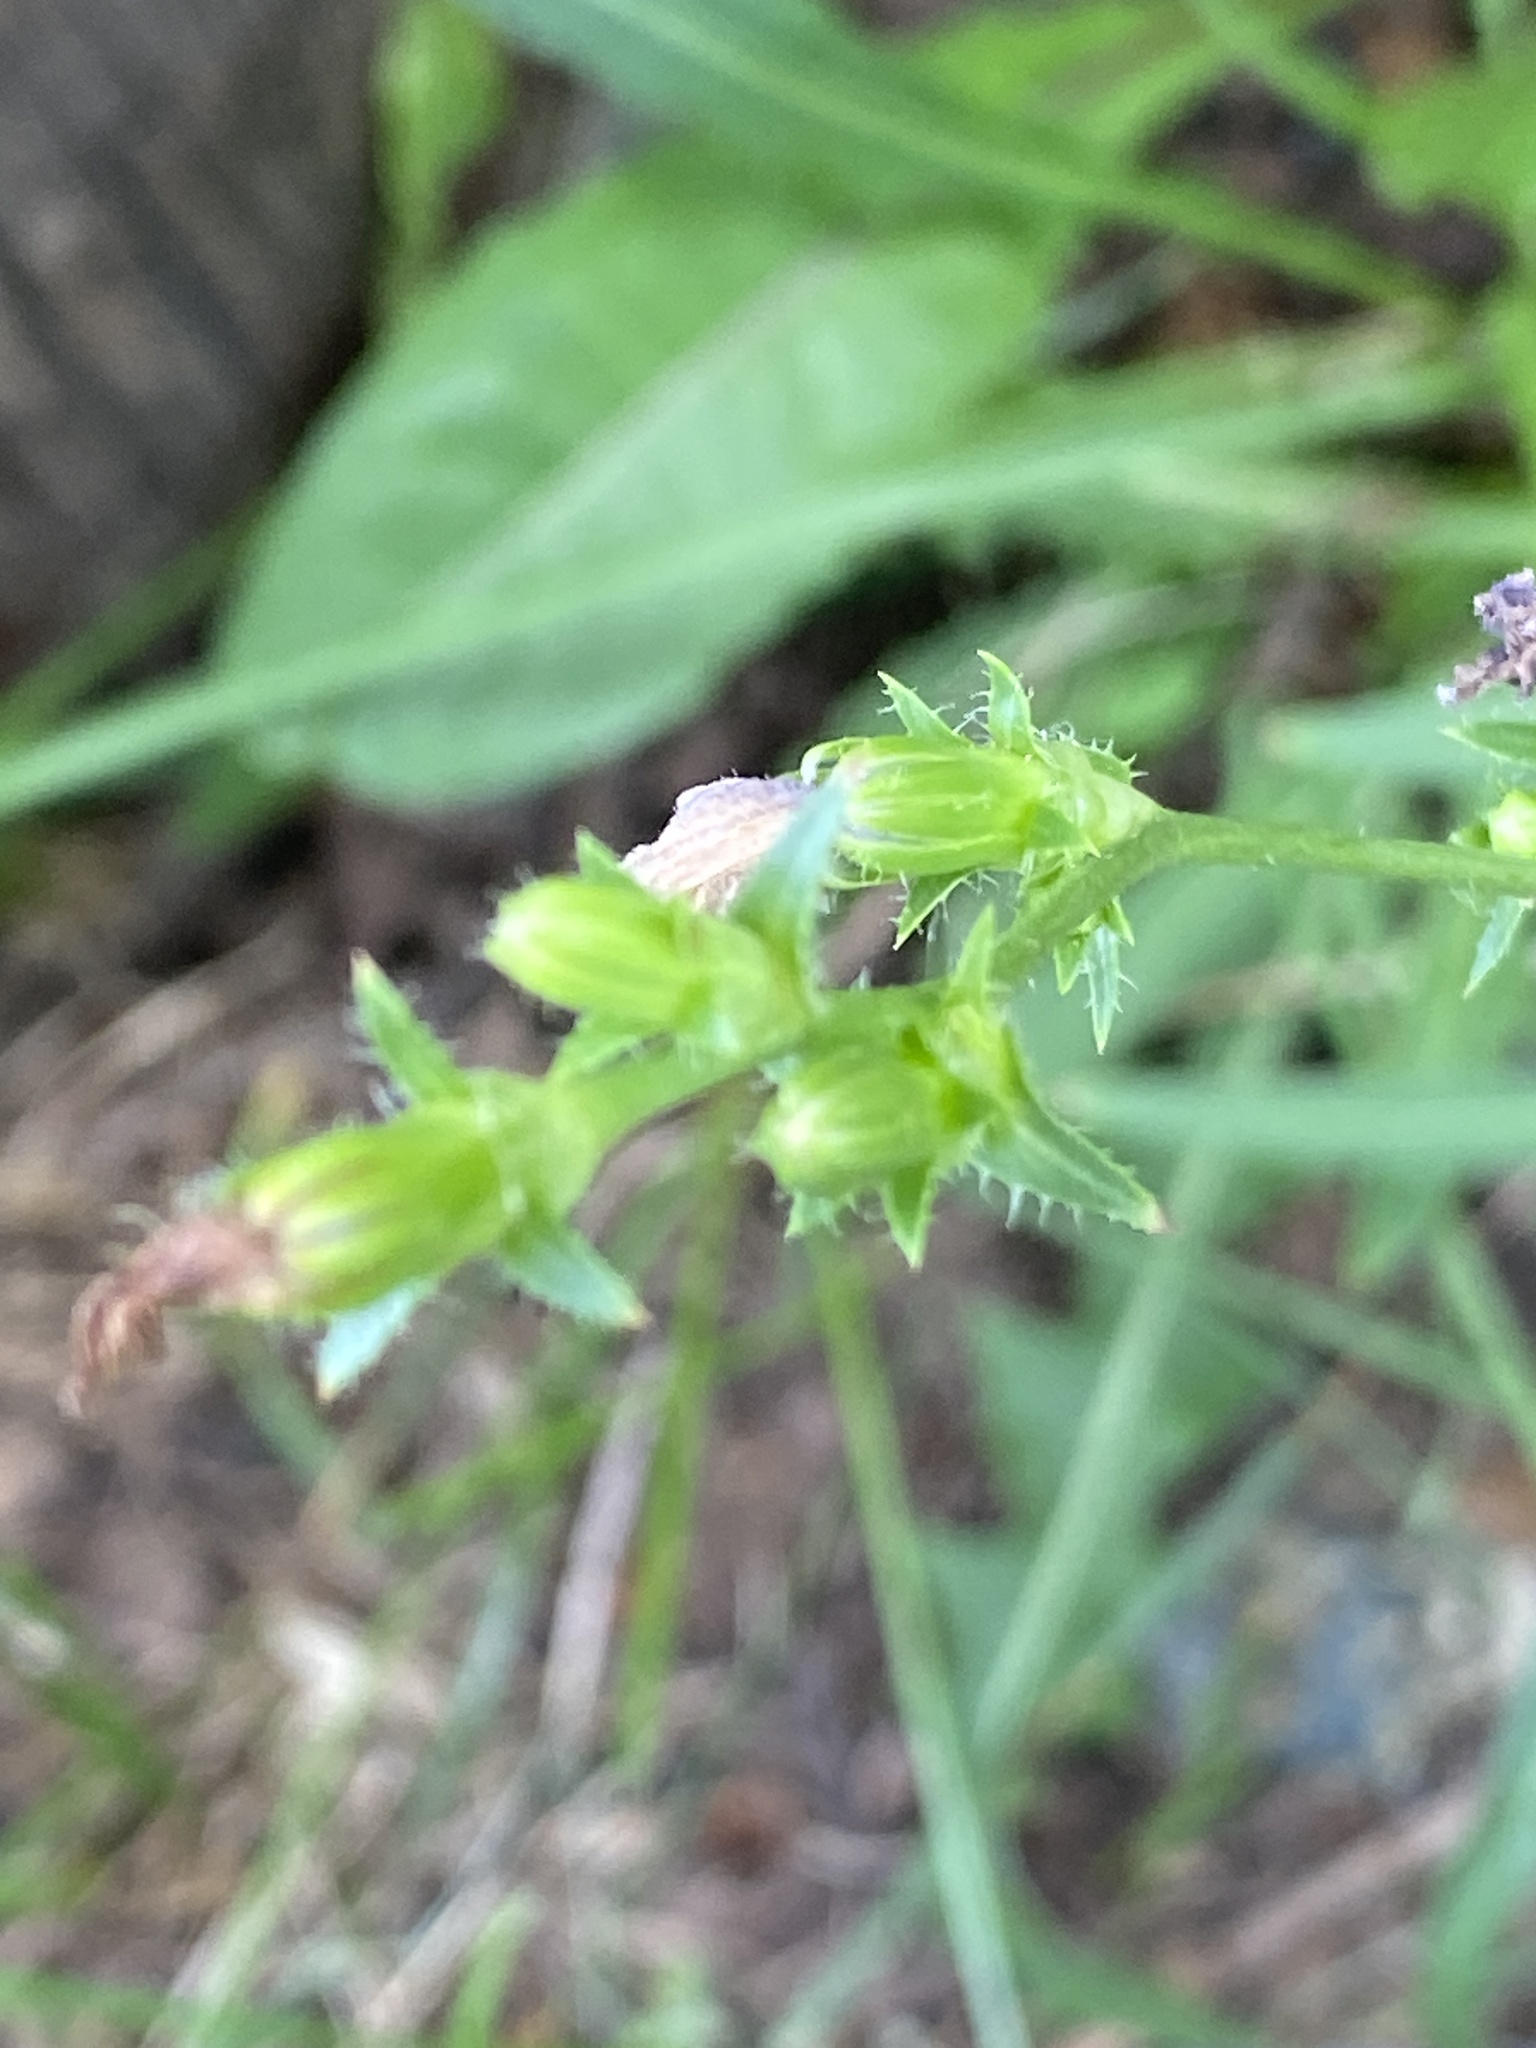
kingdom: Plantae
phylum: Tracheophyta
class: Magnoliopsida
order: Asterales
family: Asteraceae
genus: Cichorium
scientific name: Cichorium intybus
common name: Chicory
